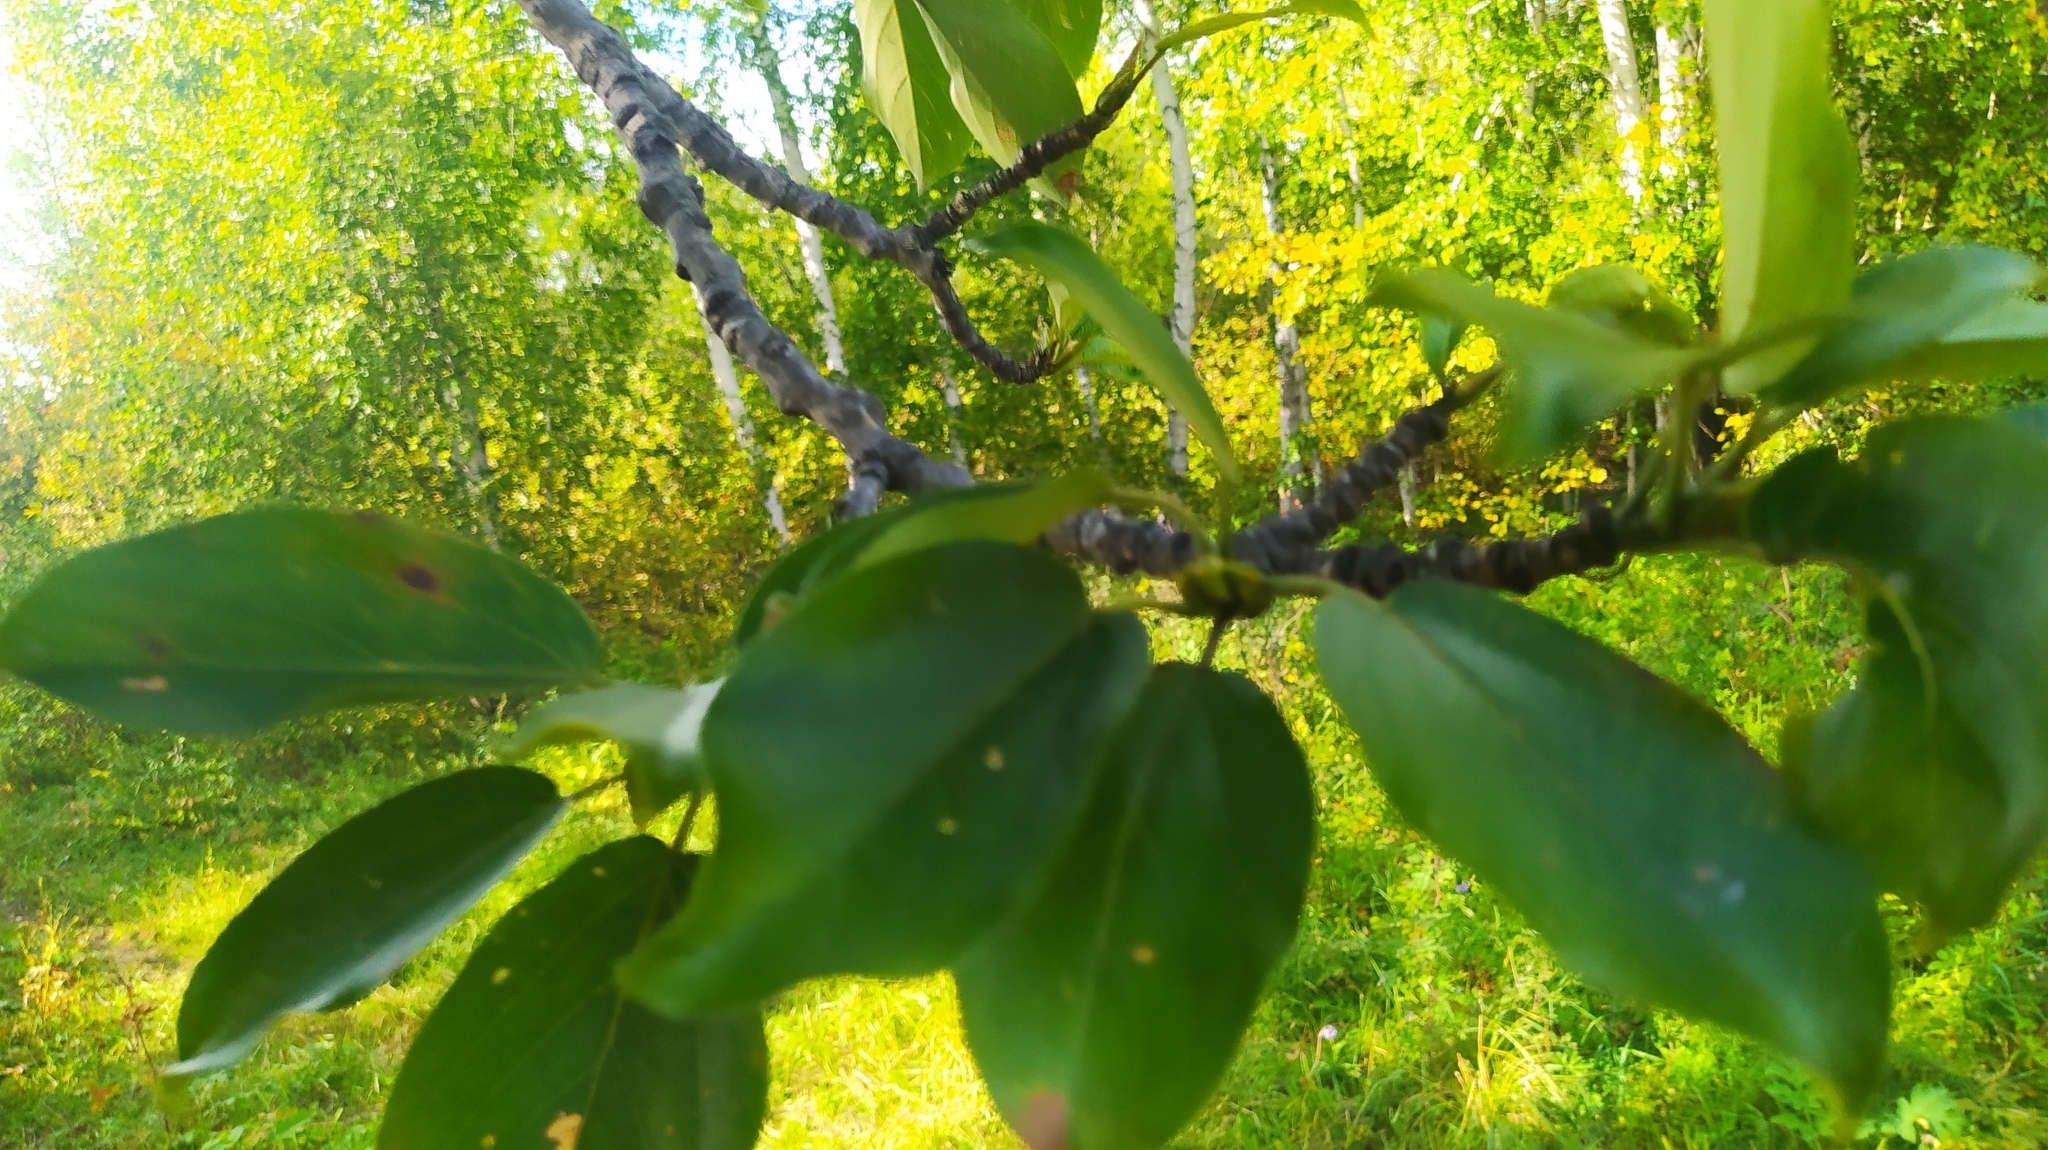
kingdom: Plantae
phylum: Tracheophyta
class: Magnoliopsida
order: Malpighiales
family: Salicaceae
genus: Populus
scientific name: Populus suaveolens
